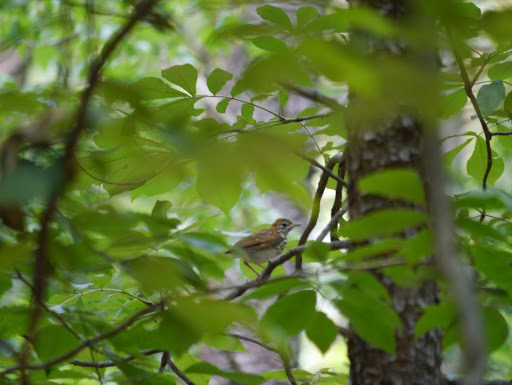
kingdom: Animalia
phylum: Chordata
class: Aves
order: Passeriformes
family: Turdidae
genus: Hylocichla
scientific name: Hylocichla mustelina
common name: Wood thrush
